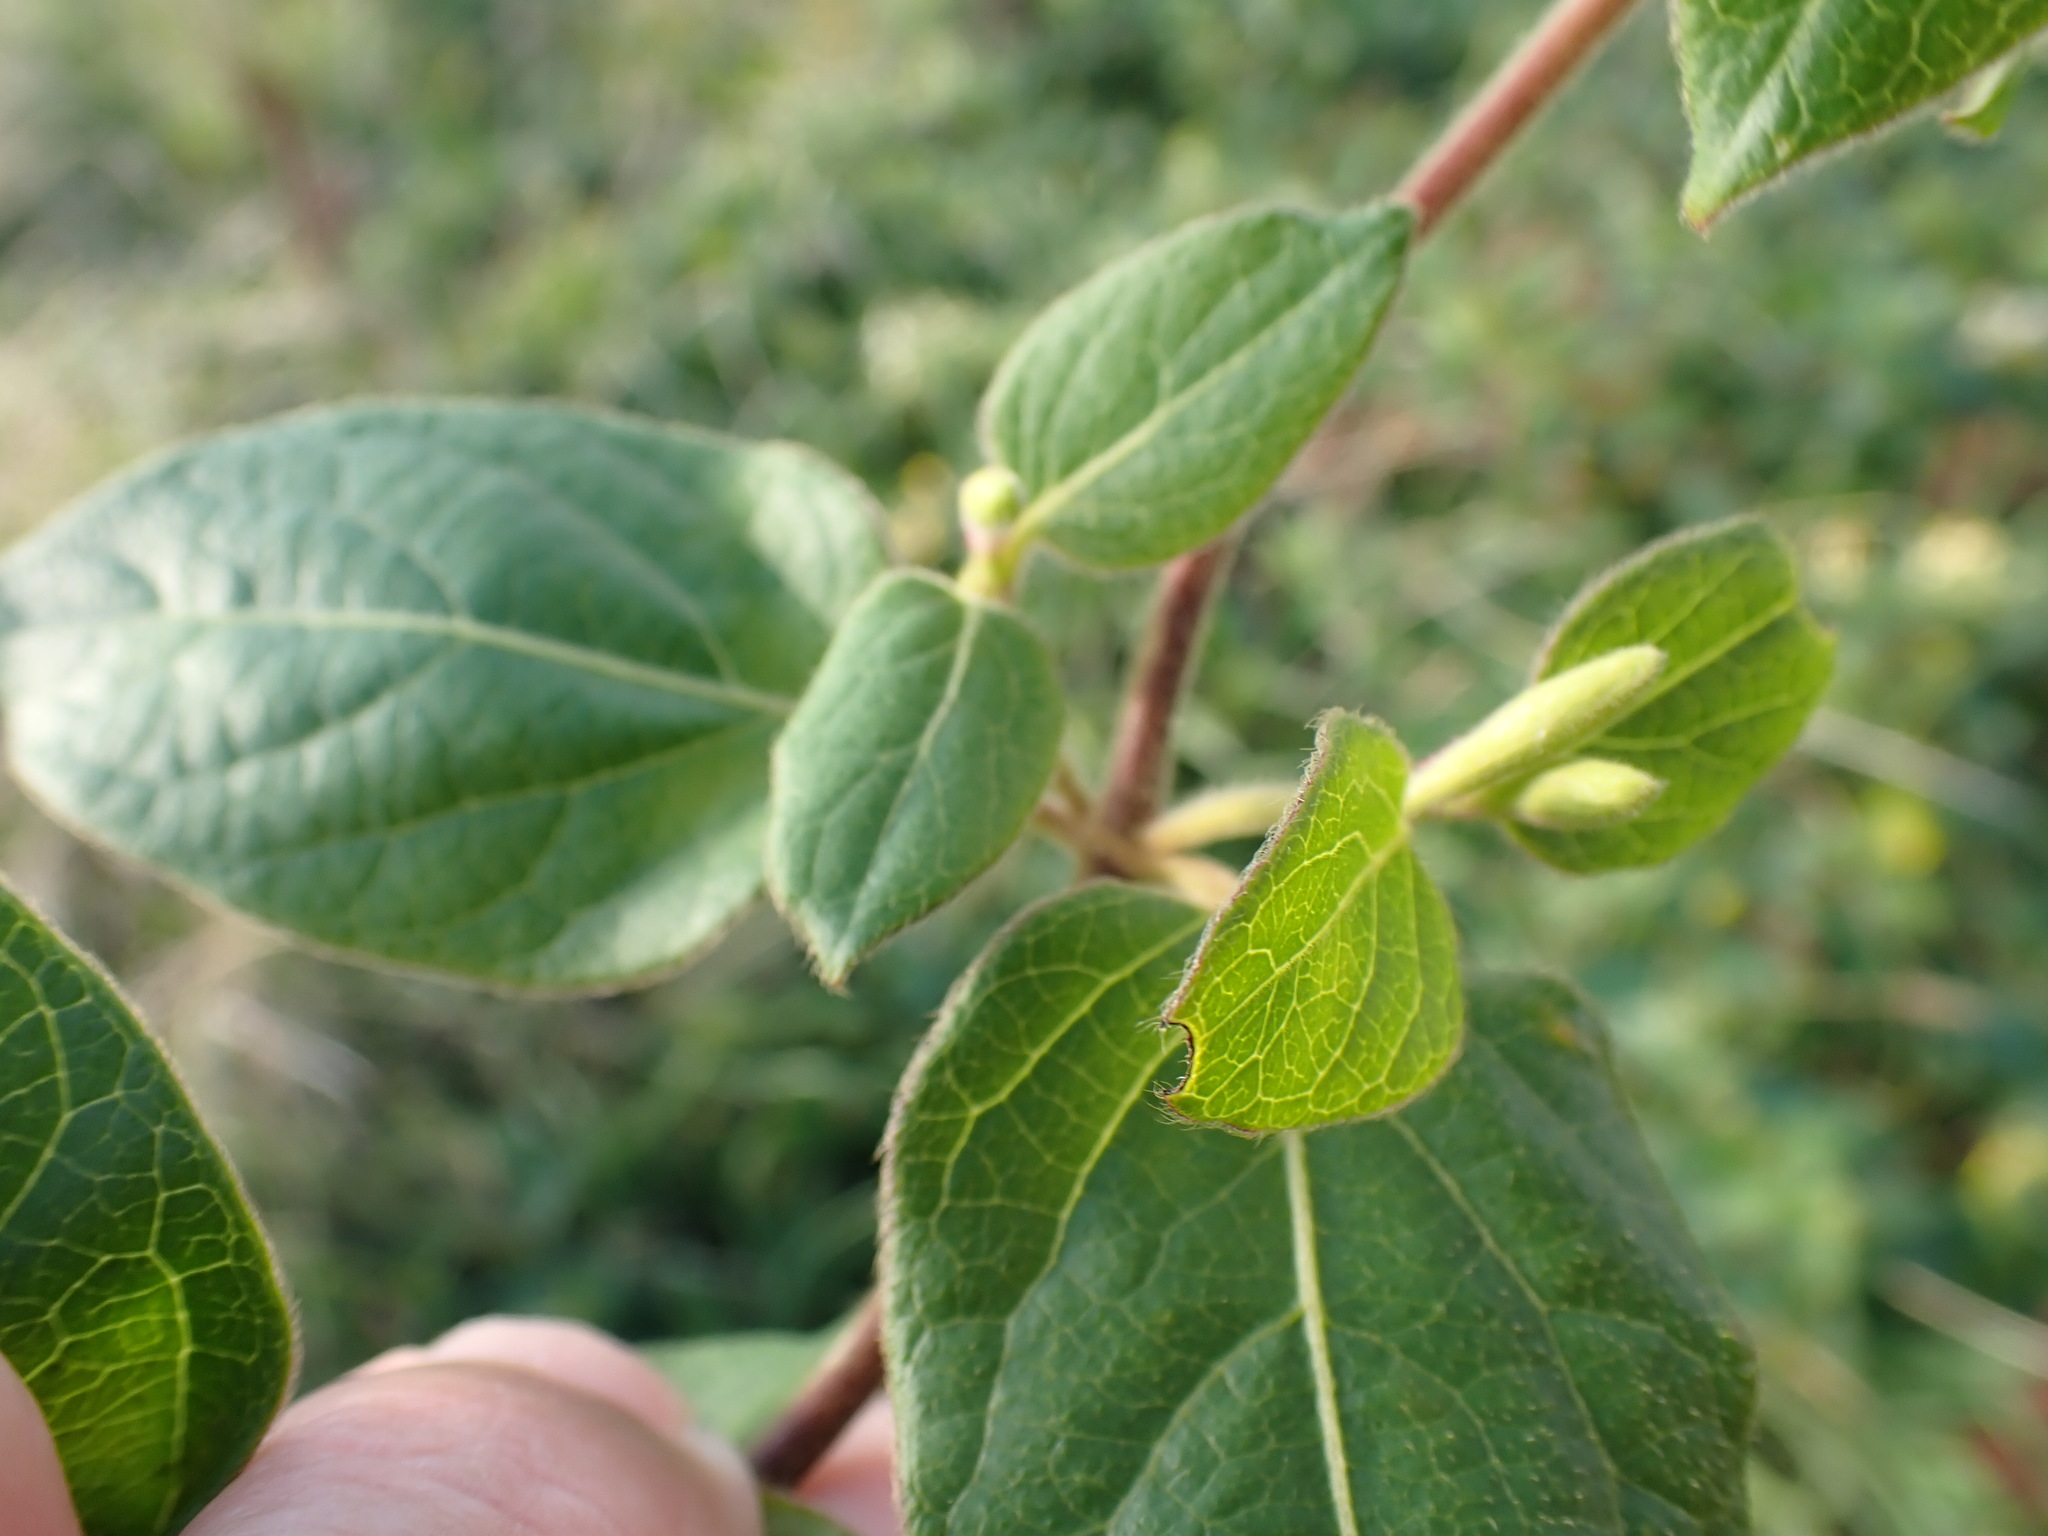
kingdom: Plantae
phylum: Tracheophyta
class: Magnoliopsida
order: Dipsacales
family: Caprifoliaceae
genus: Lonicera
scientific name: Lonicera japonica
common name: Japanese honeysuckle
